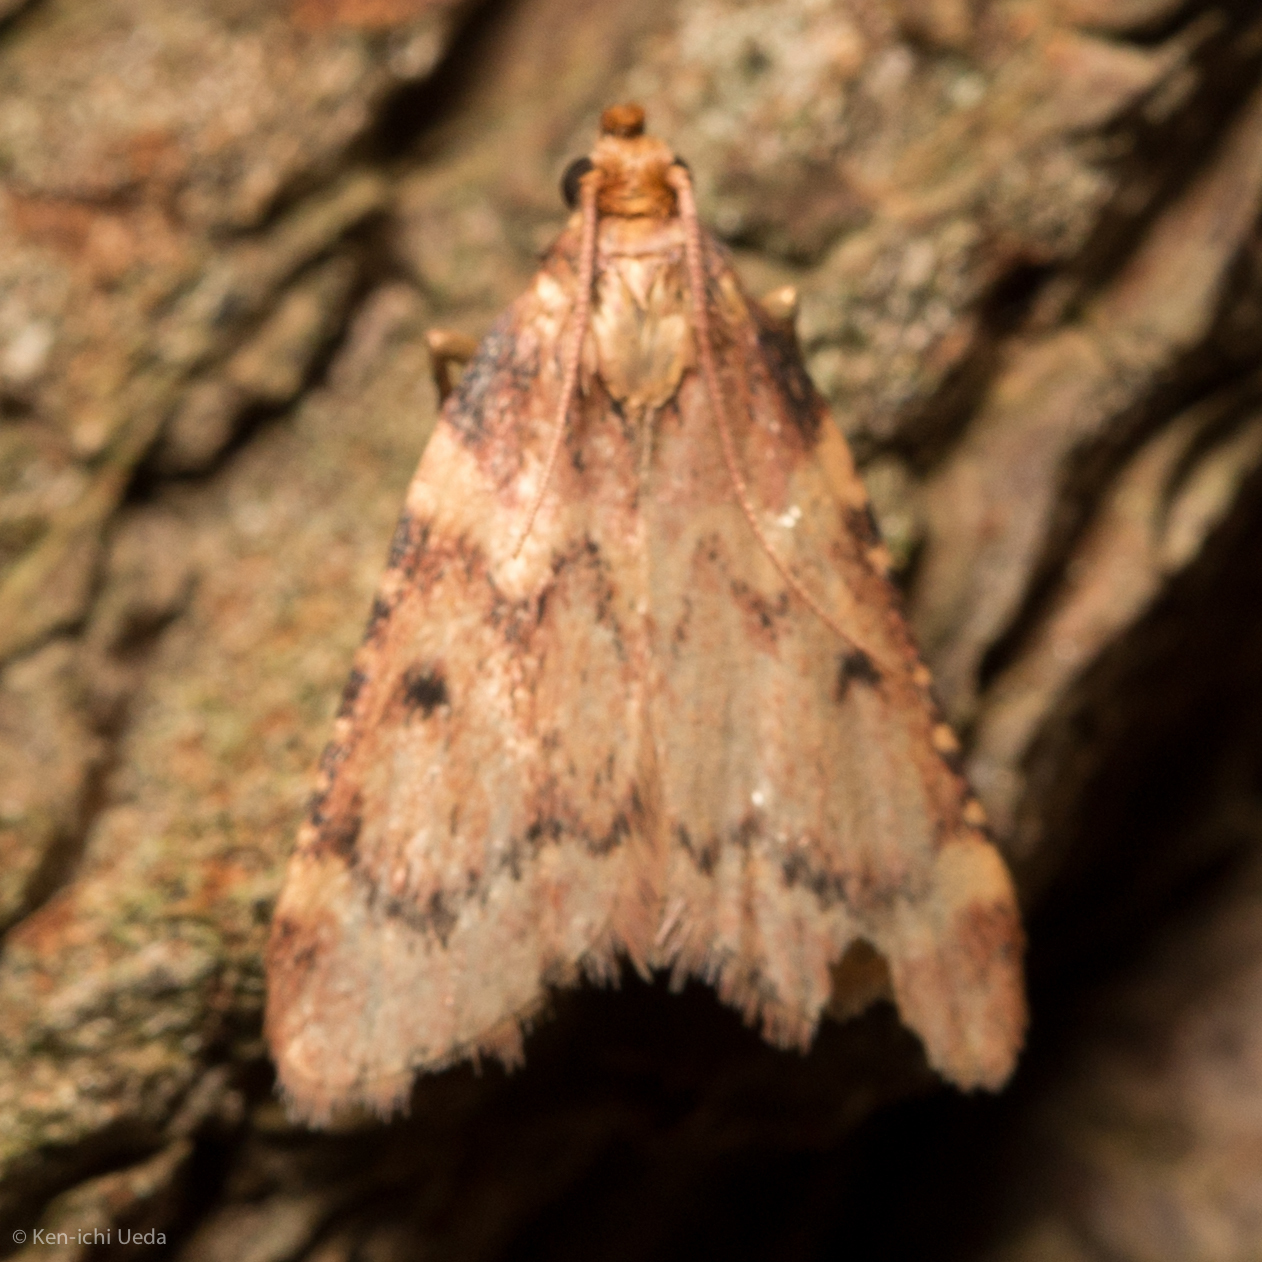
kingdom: Animalia
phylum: Arthropoda
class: Insecta
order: Lepidoptera
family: Pyralidae
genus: Aglossa
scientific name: Aglossa disciferalis
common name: Pink-masked pyralid moth
